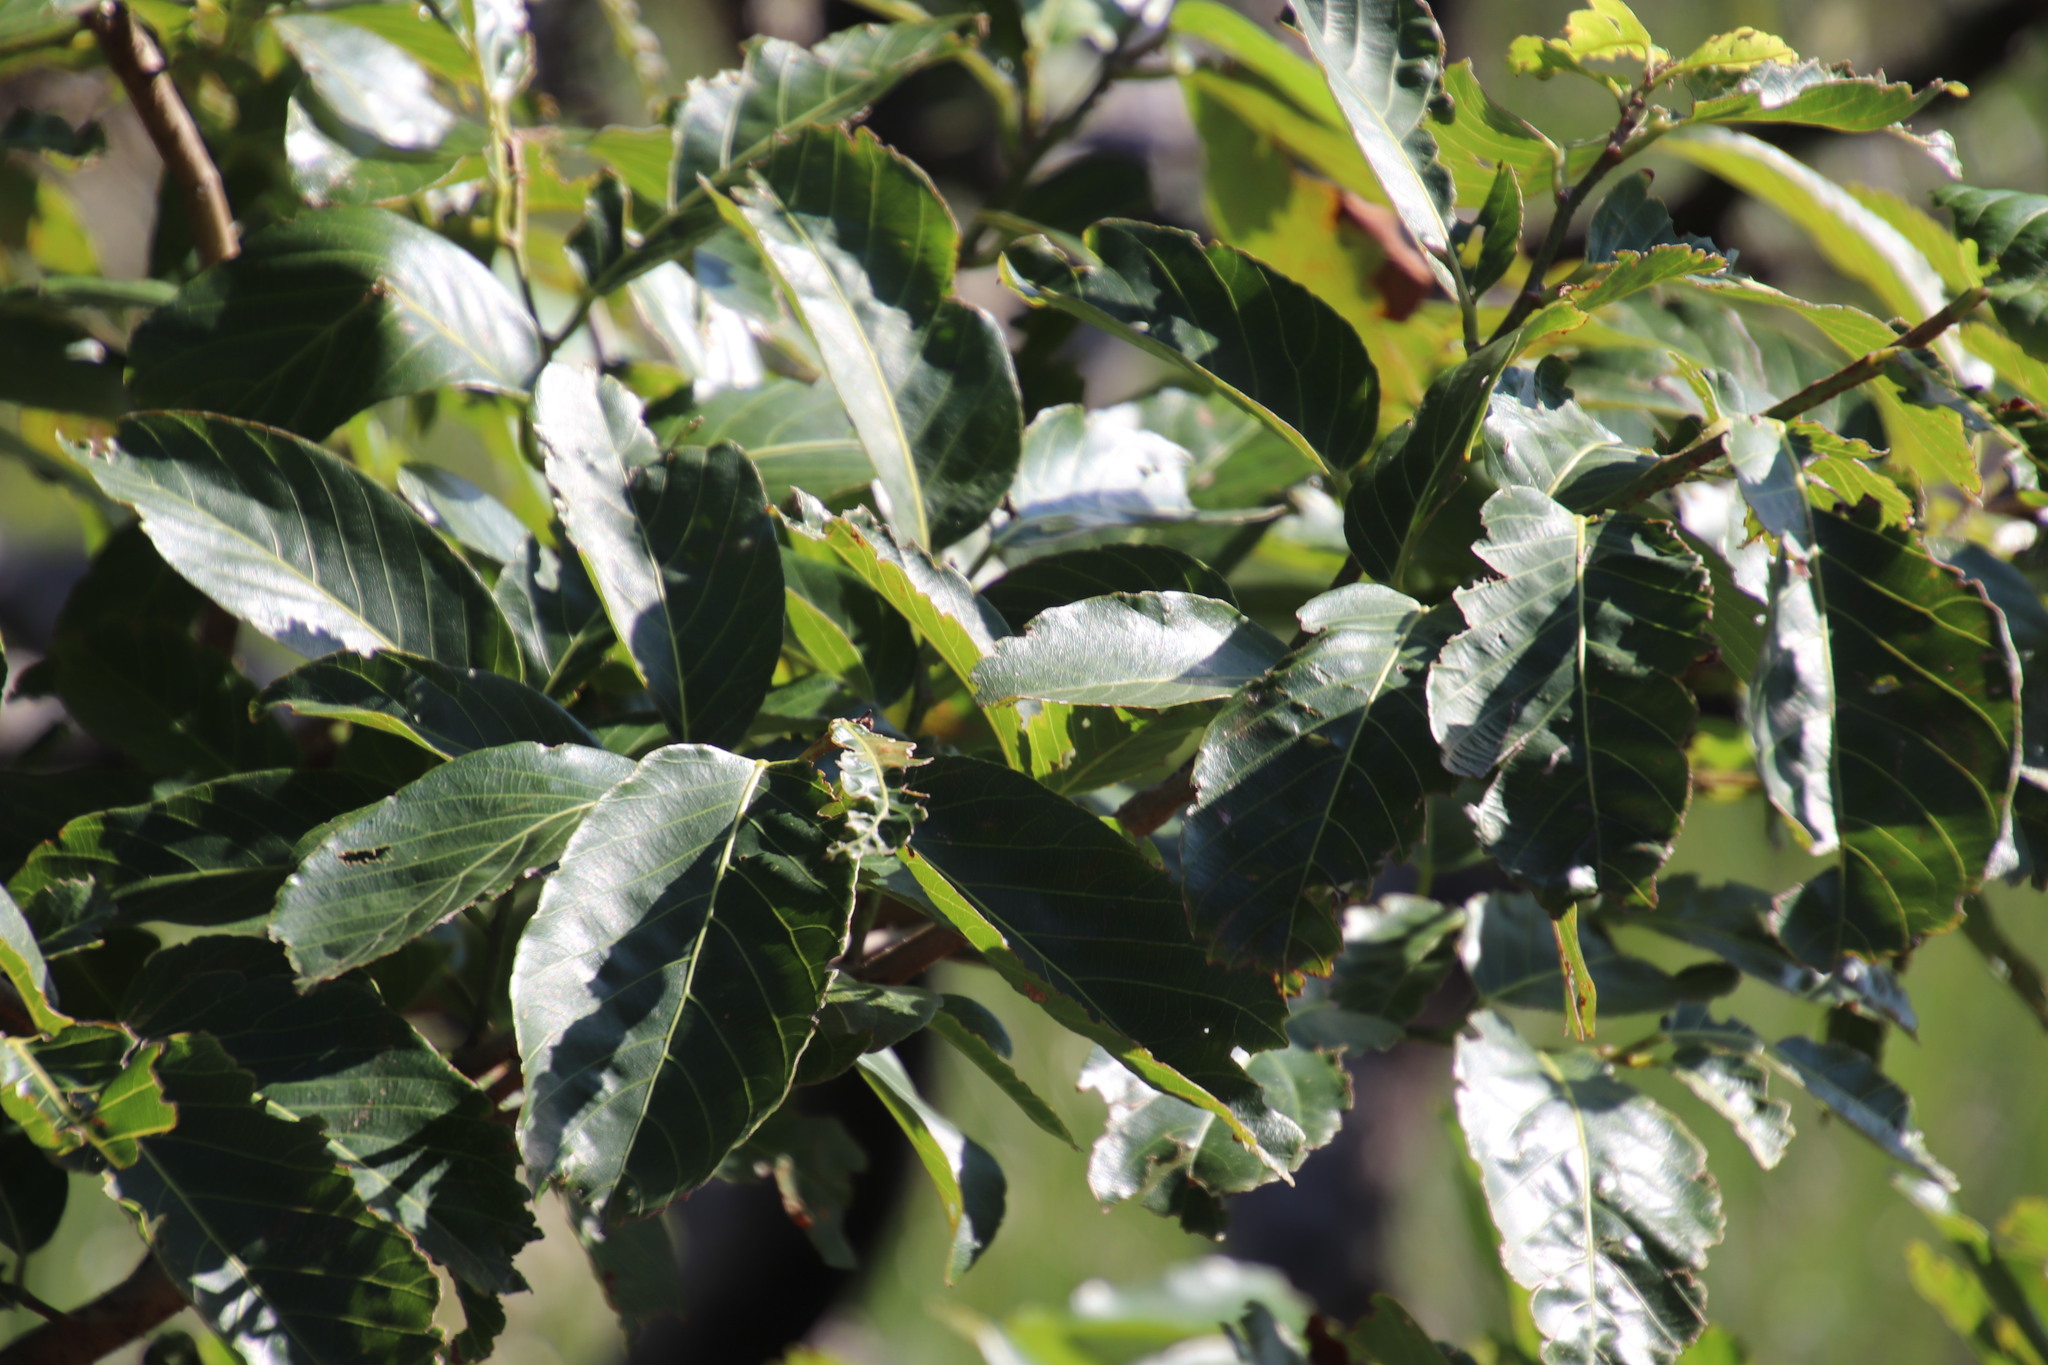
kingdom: Plantae
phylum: Tracheophyta
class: Magnoliopsida
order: Malpighiales
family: Phyllanthaceae
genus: Bridelia
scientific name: Bridelia micrantha
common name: Bridelia
